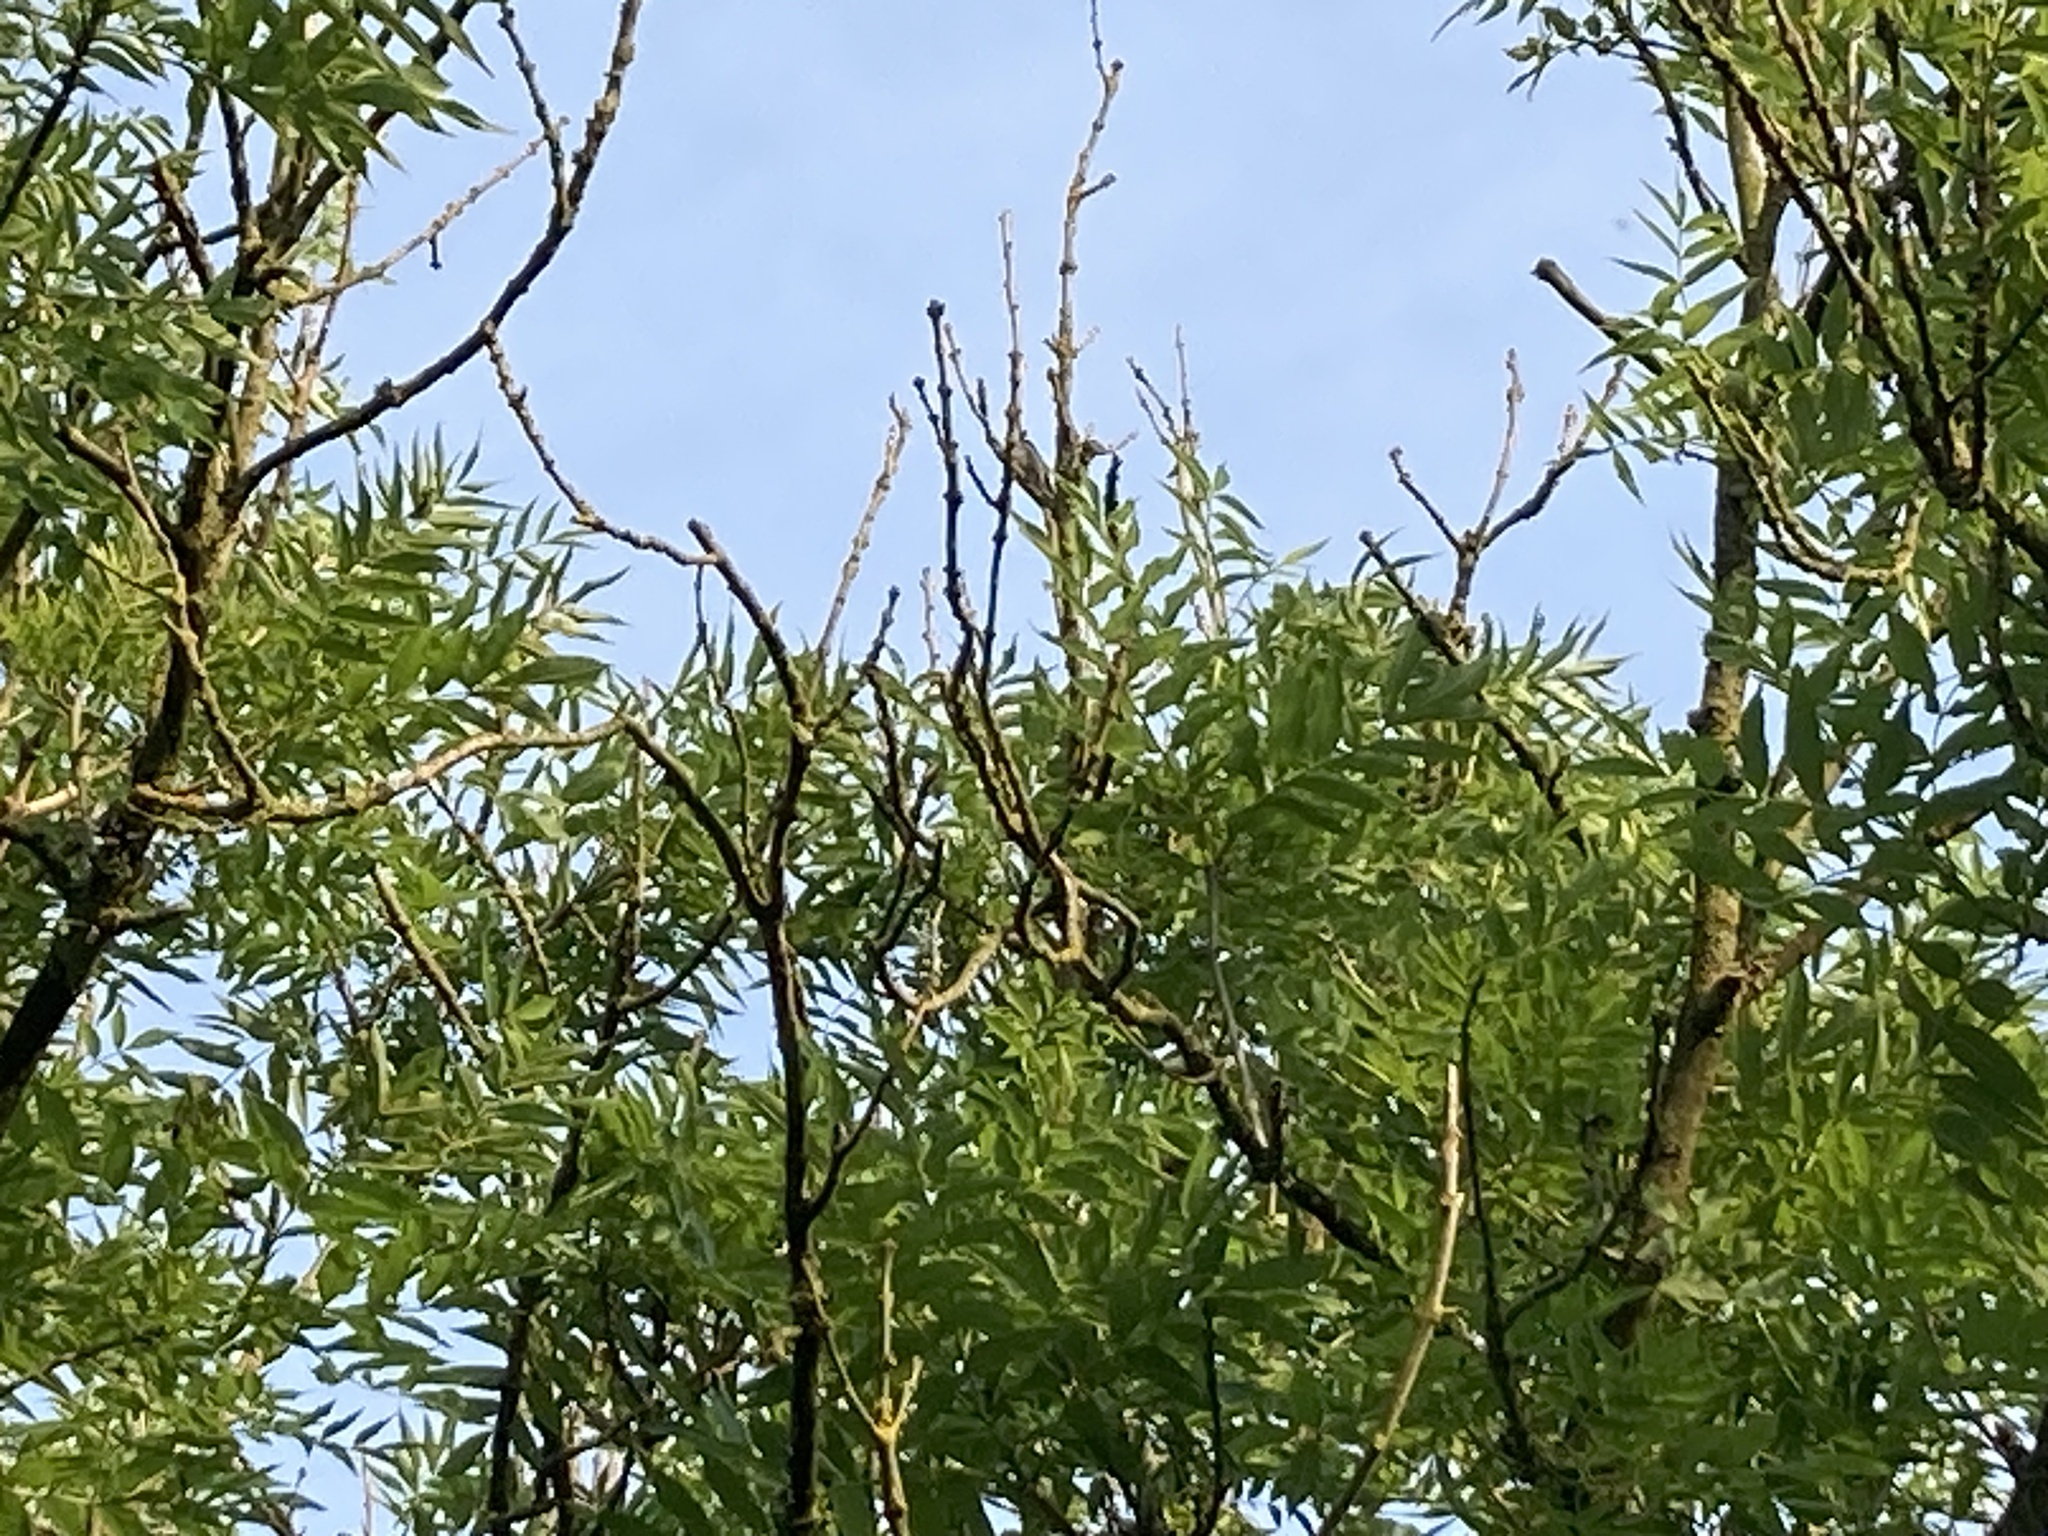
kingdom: Animalia
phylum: Chordata
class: Aves
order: Passeriformes
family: Aegithalidae
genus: Aegithalos
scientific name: Aegithalos caudatus
